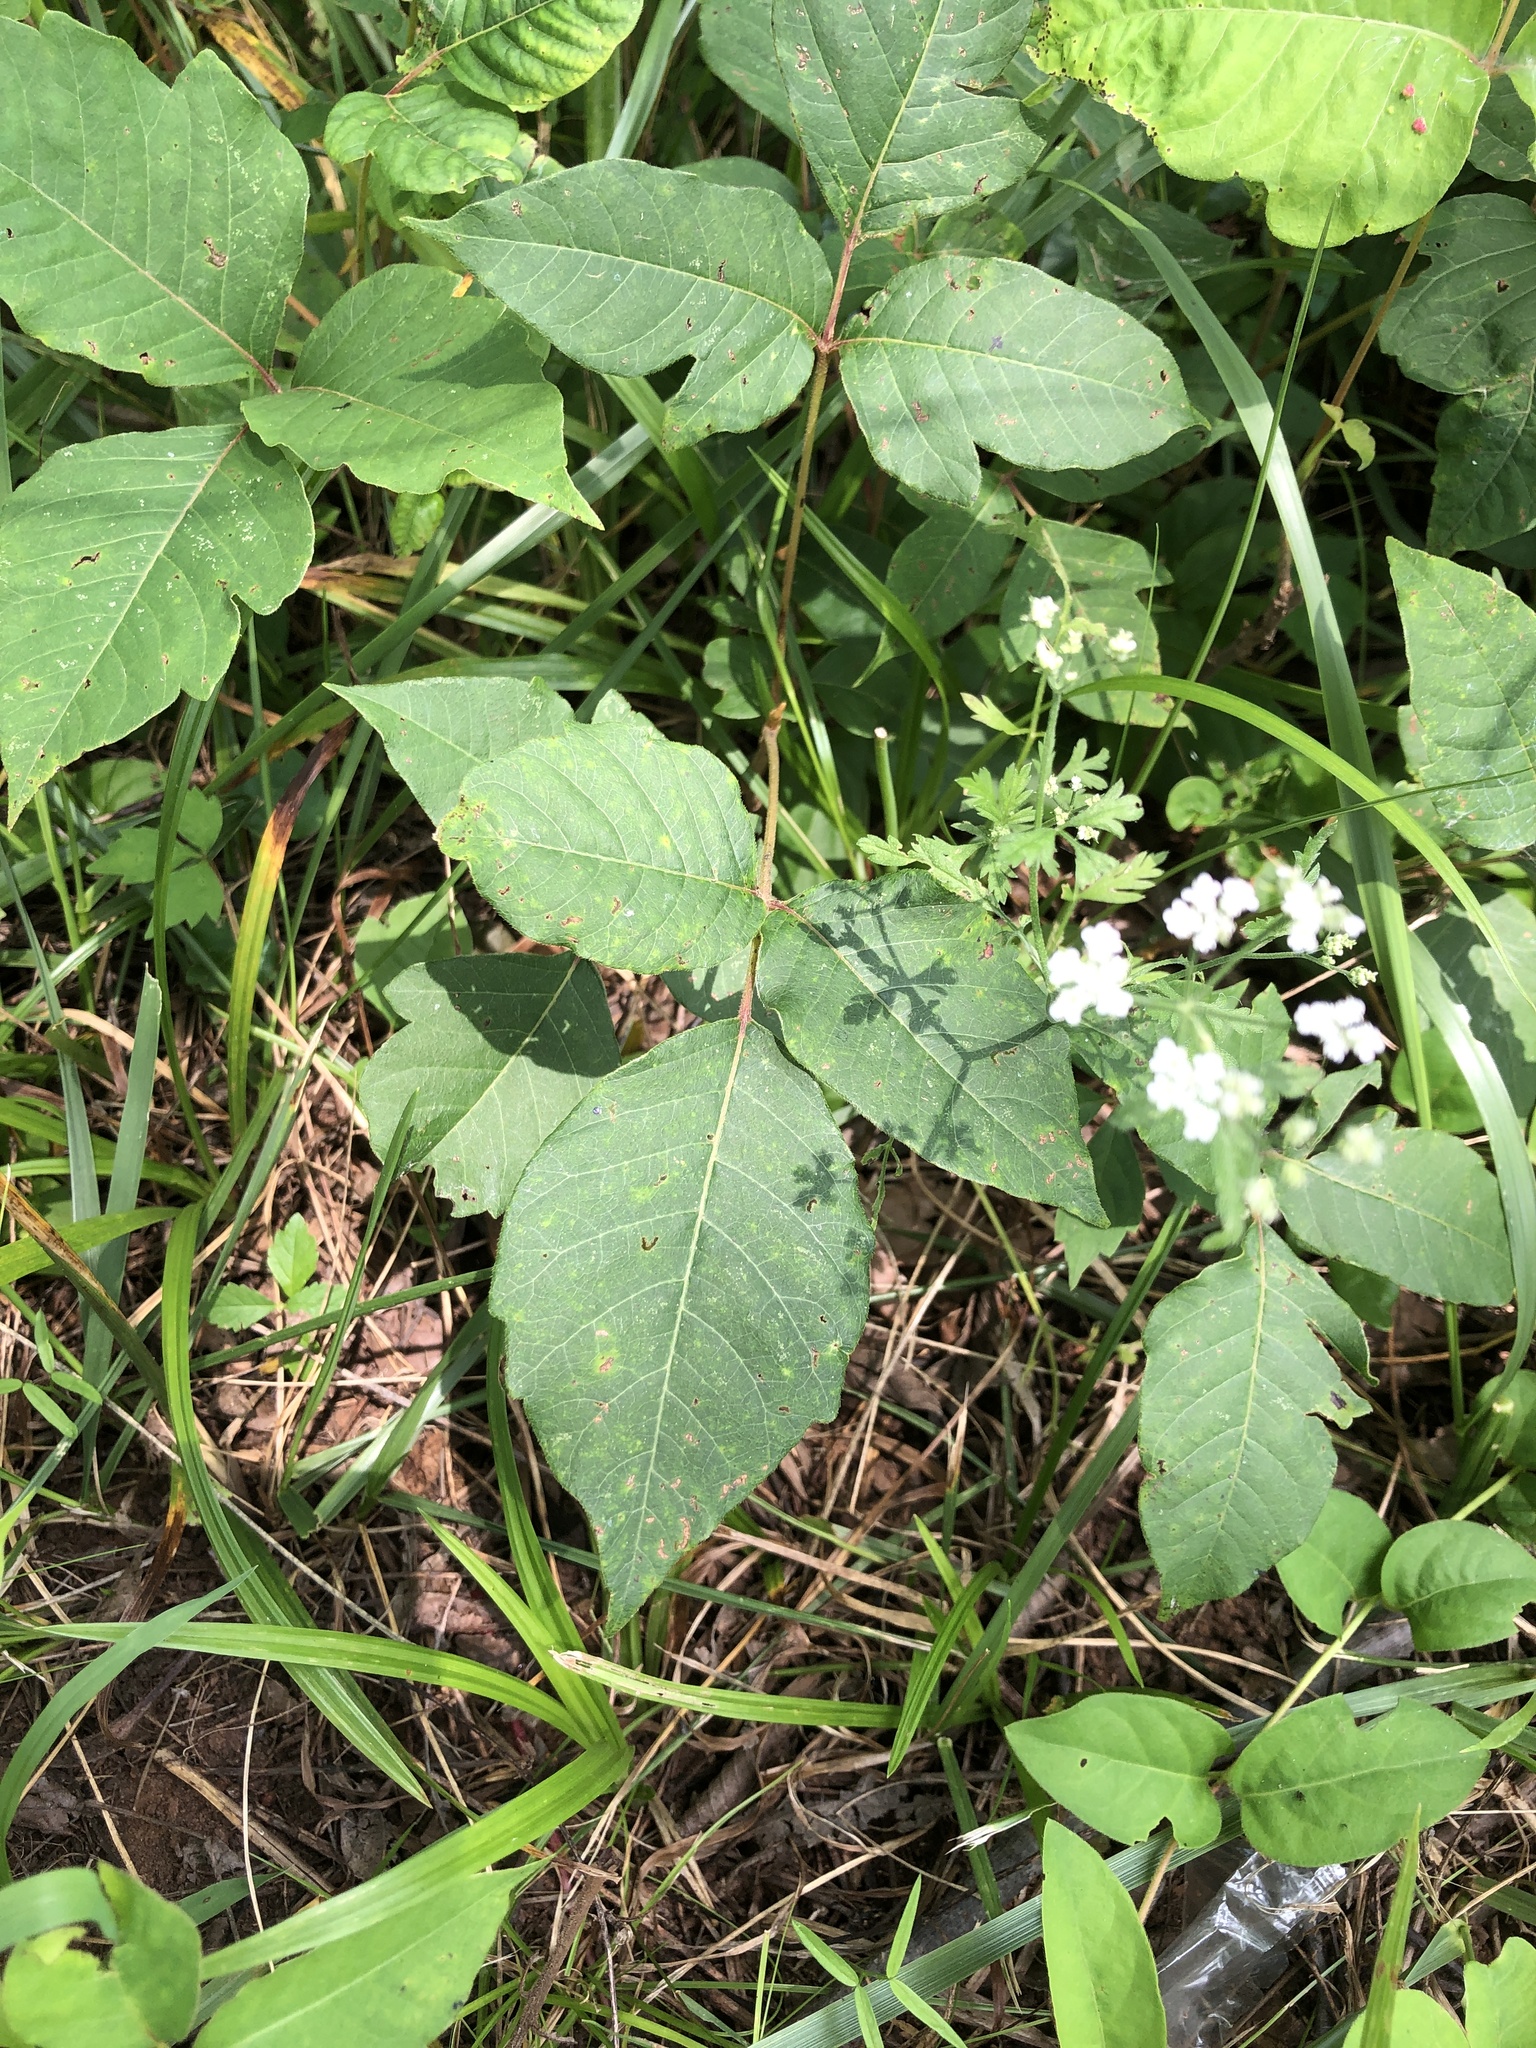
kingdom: Plantae
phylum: Tracheophyta
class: Magnoliopsida
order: Sapindales
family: Anacardiaceae
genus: Toxicodendron
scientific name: Toxicodendron radicans
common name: Poison ivy
